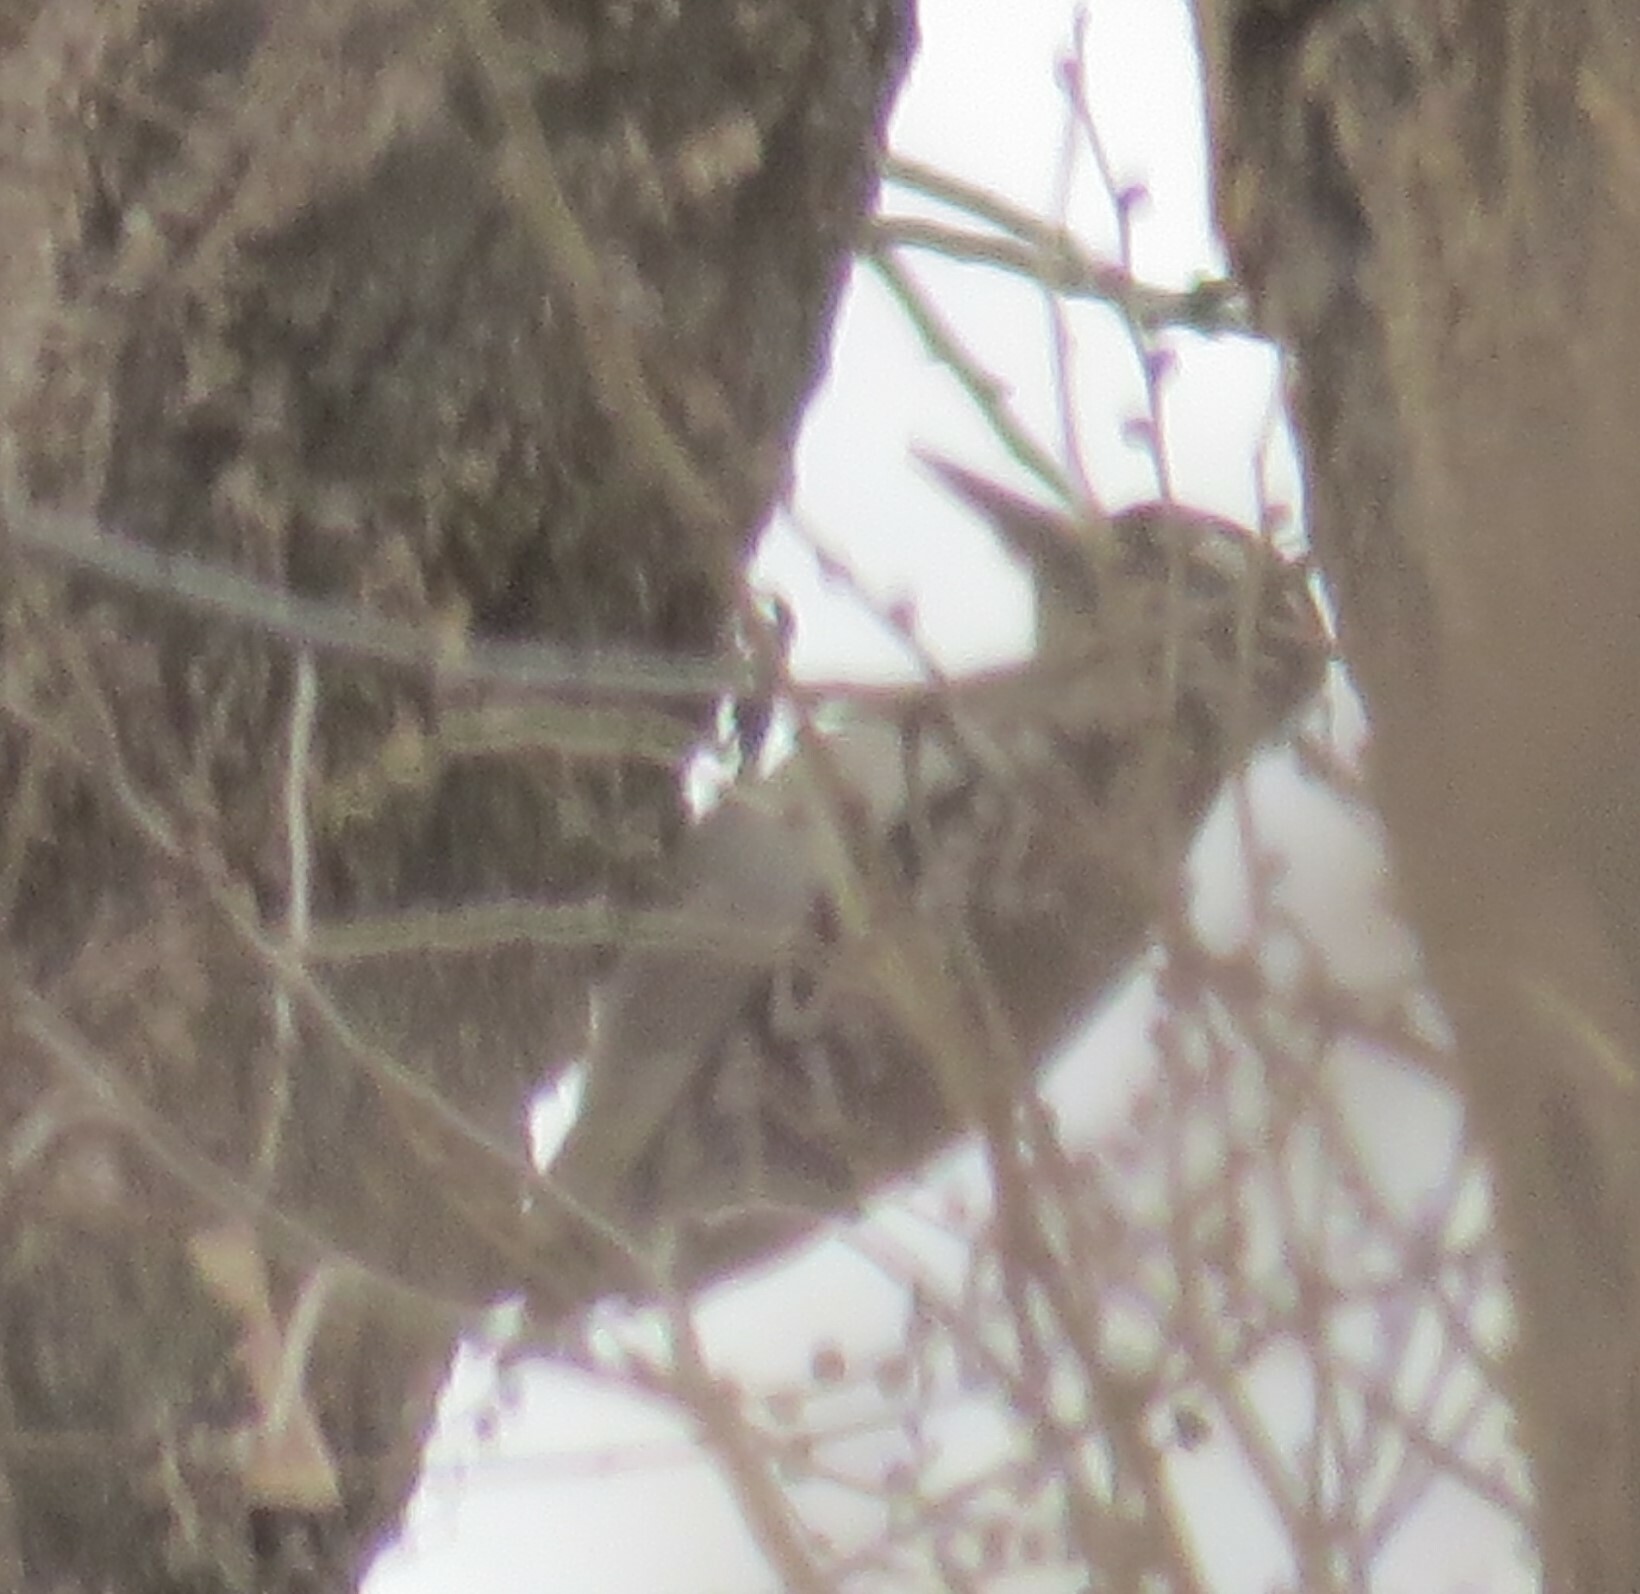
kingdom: Animalia
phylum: Chordata
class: Aves
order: Piciformes
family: Picidae
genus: Leuconotopicus
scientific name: Leuconotopicus villosus
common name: Hairy woodpecker
